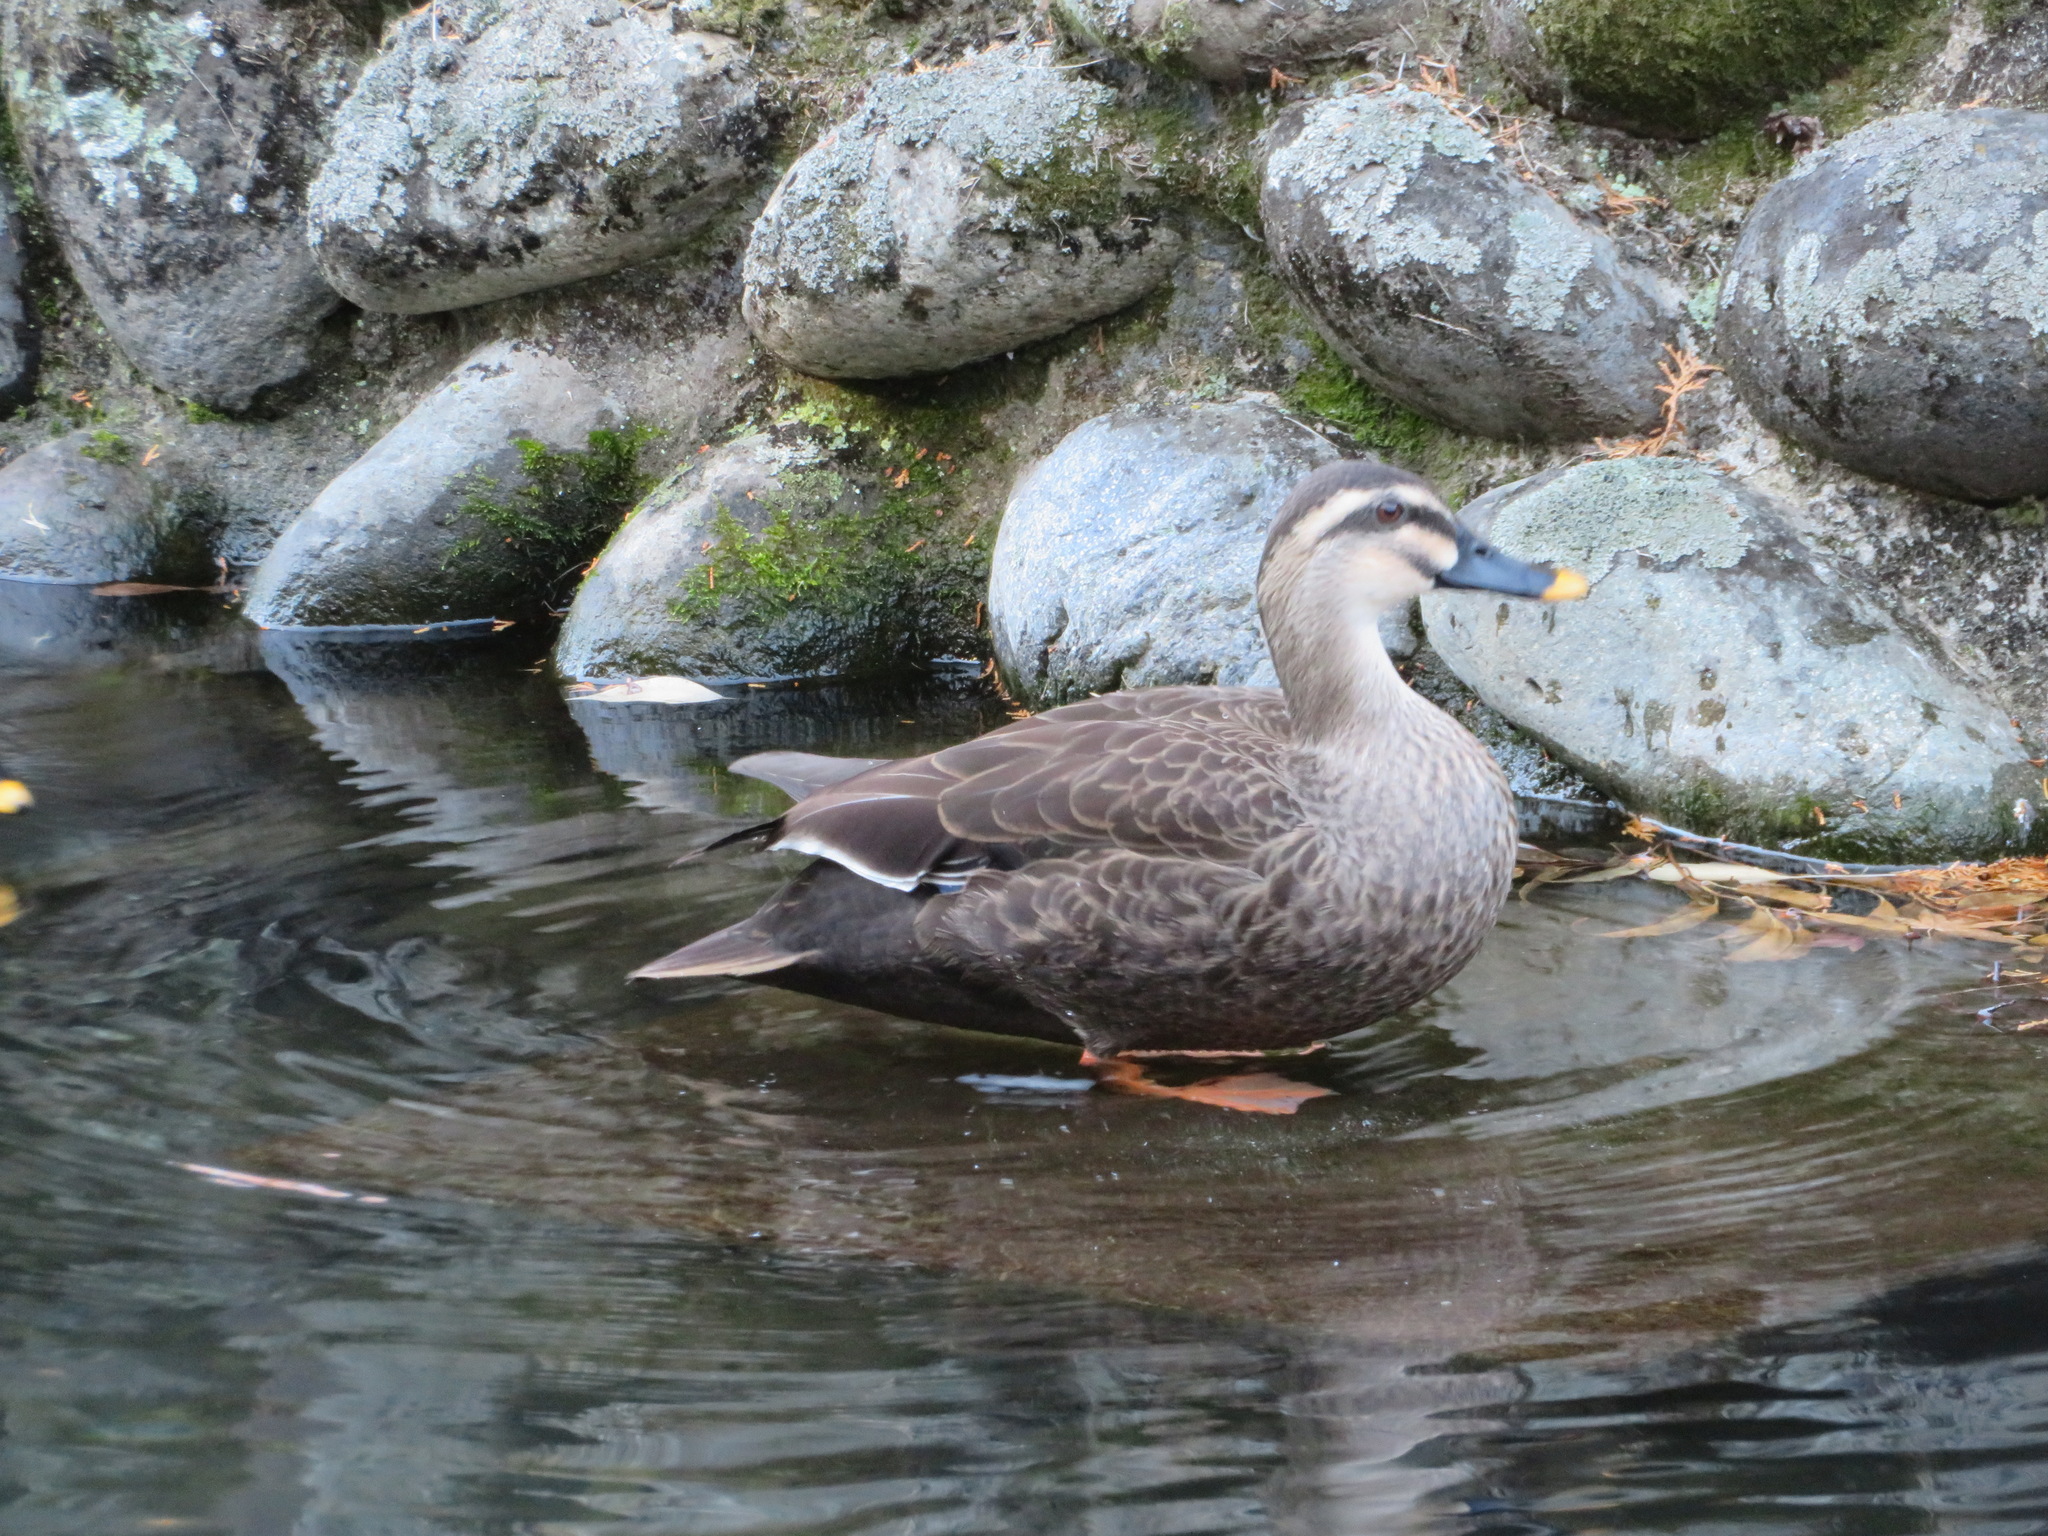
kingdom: Animalia
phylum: Chordata
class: Aves
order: Anseriformes
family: Anatidae
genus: Anas
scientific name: Anas zonorhyncha
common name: Eastern spot-billed duck
